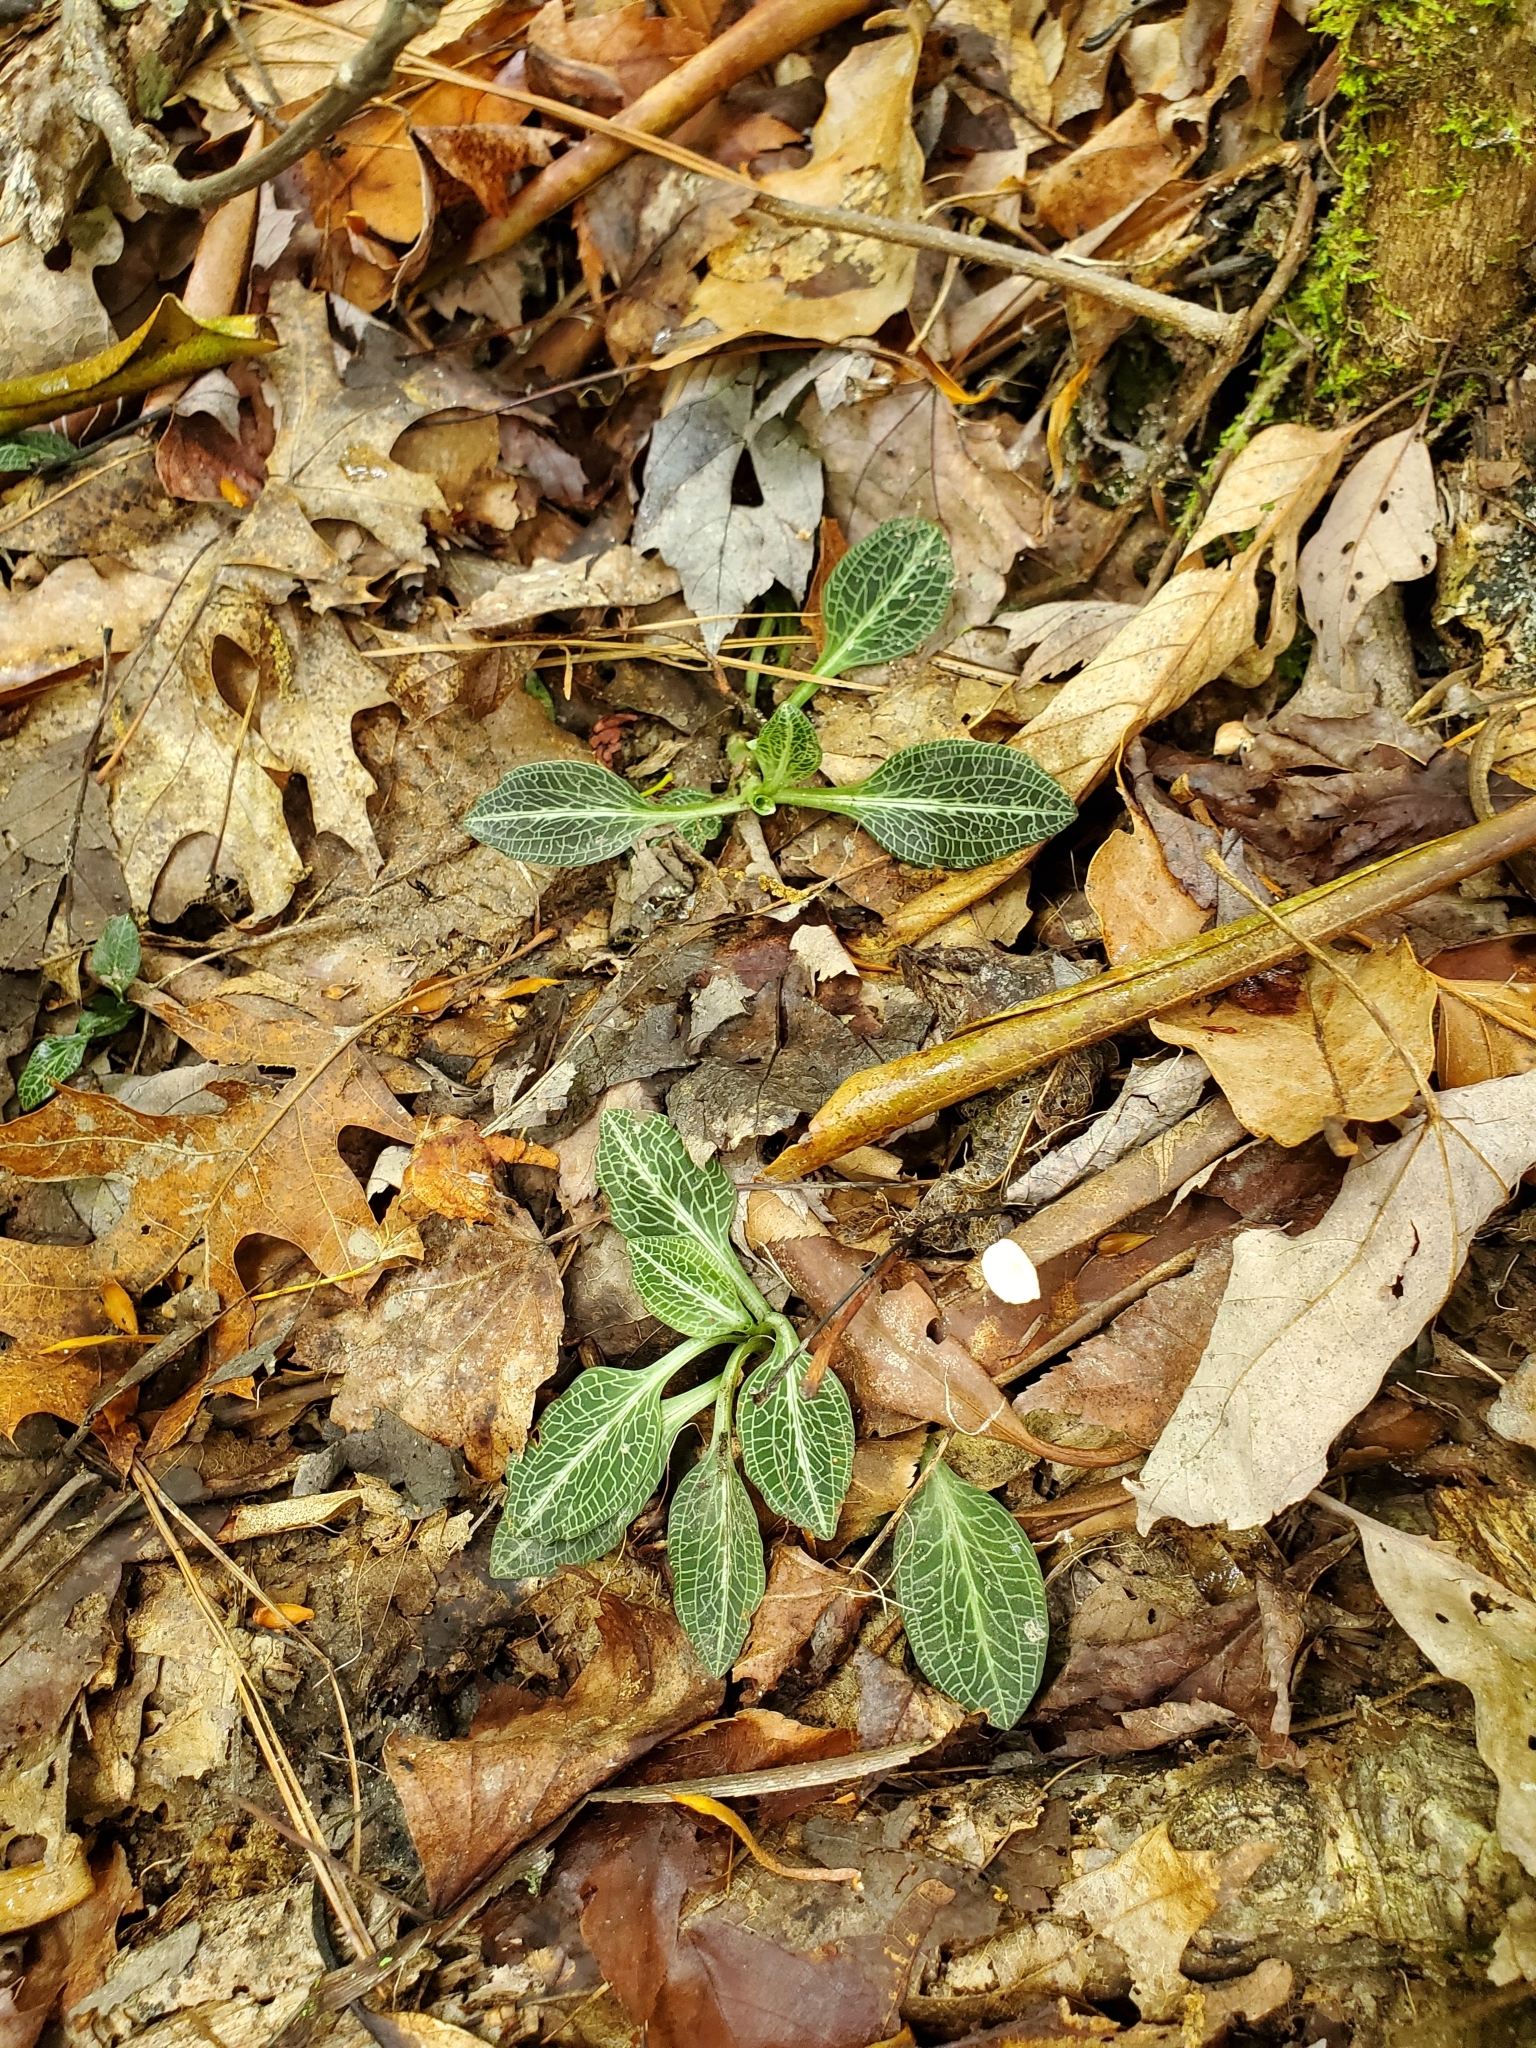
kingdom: Plantae
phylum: Tracheophyta
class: Liliopsida
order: Asparagales
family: Orchidaceae
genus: Goodyera
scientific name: Goodyera pubescens
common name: Downy rattlesnake-plantain
